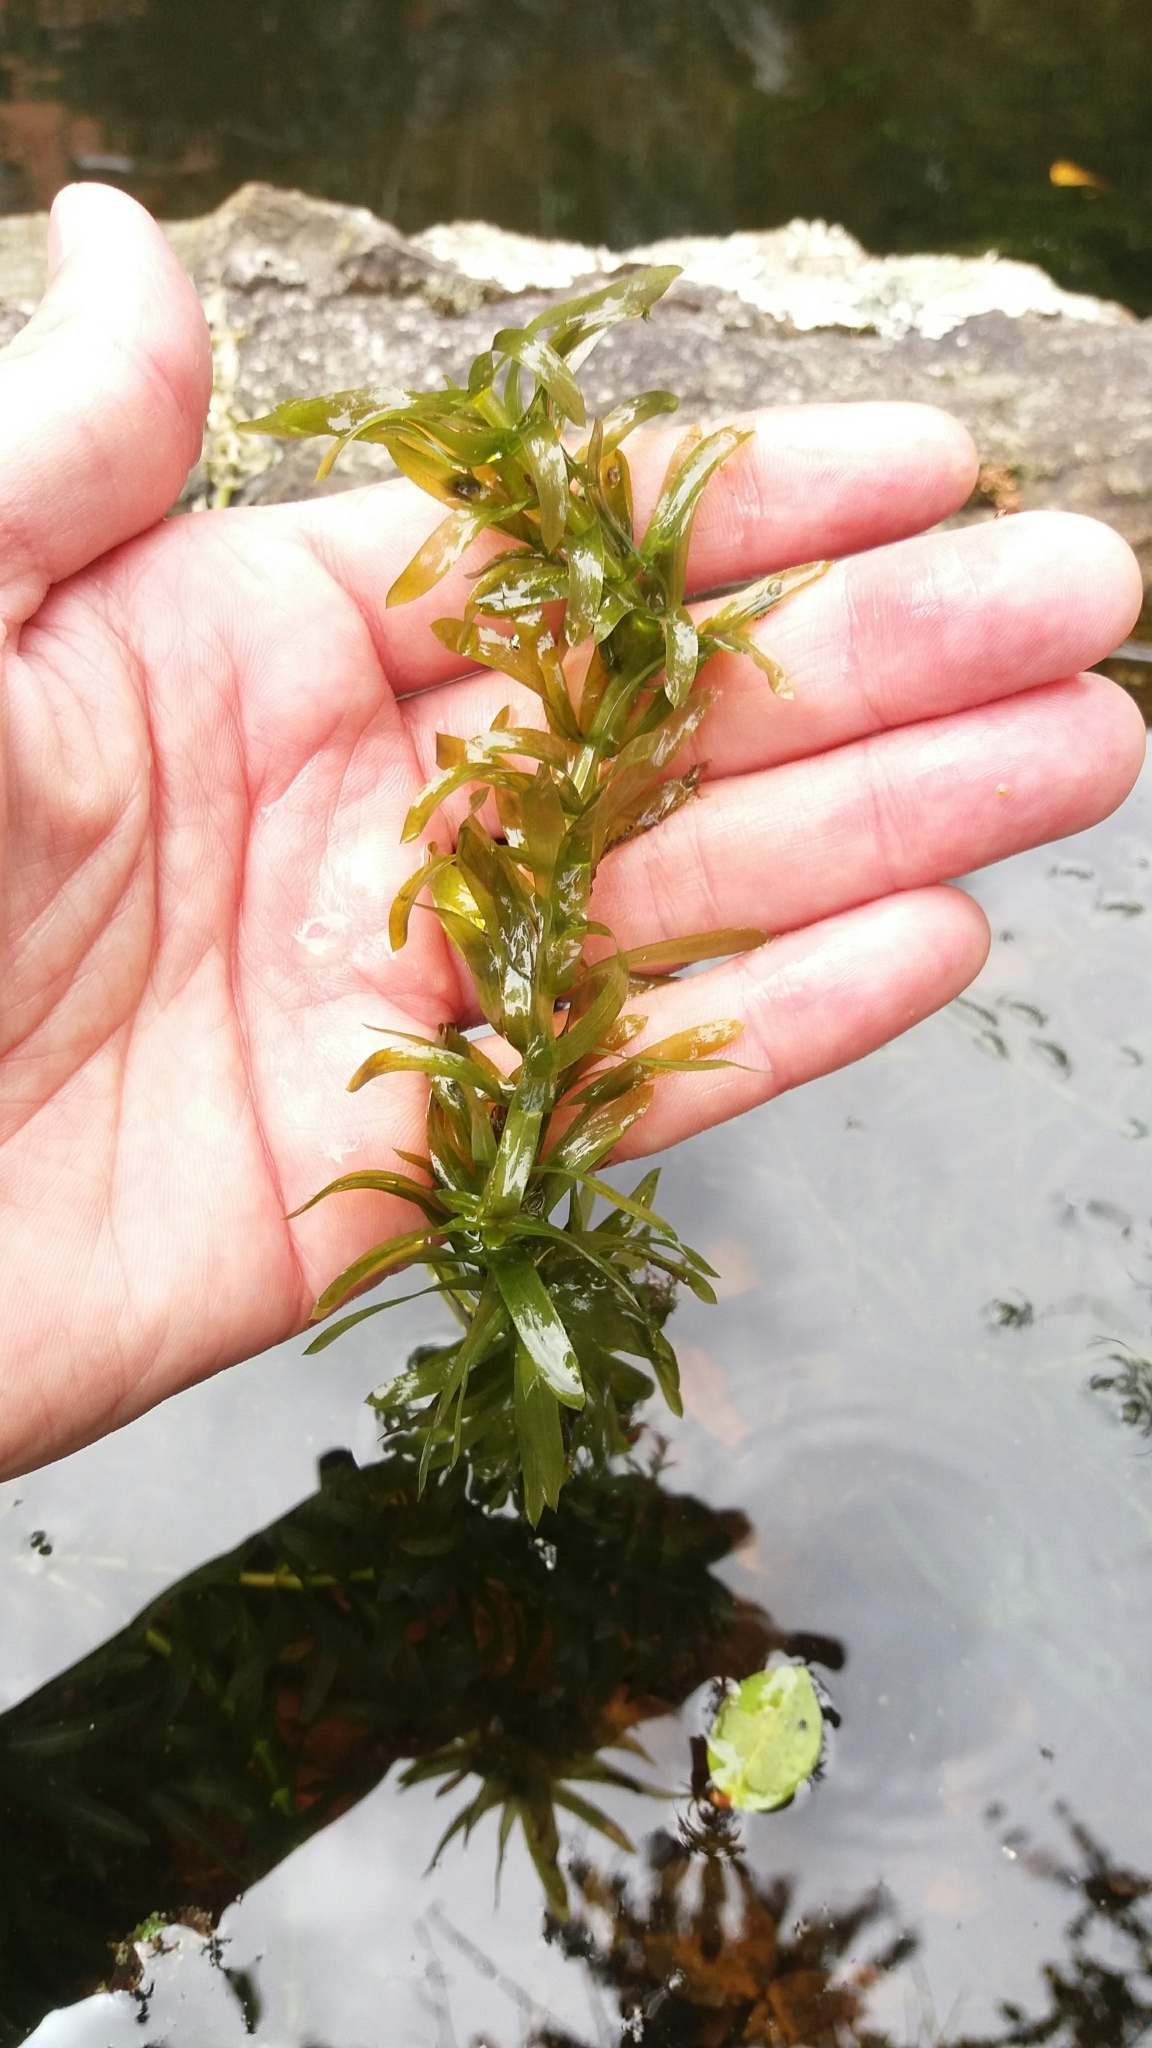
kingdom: Plantae
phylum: Tracheophyta
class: Liliopsida
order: Alismatales
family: Hydrocharitaceae
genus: Elodea
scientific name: Elodea densa
